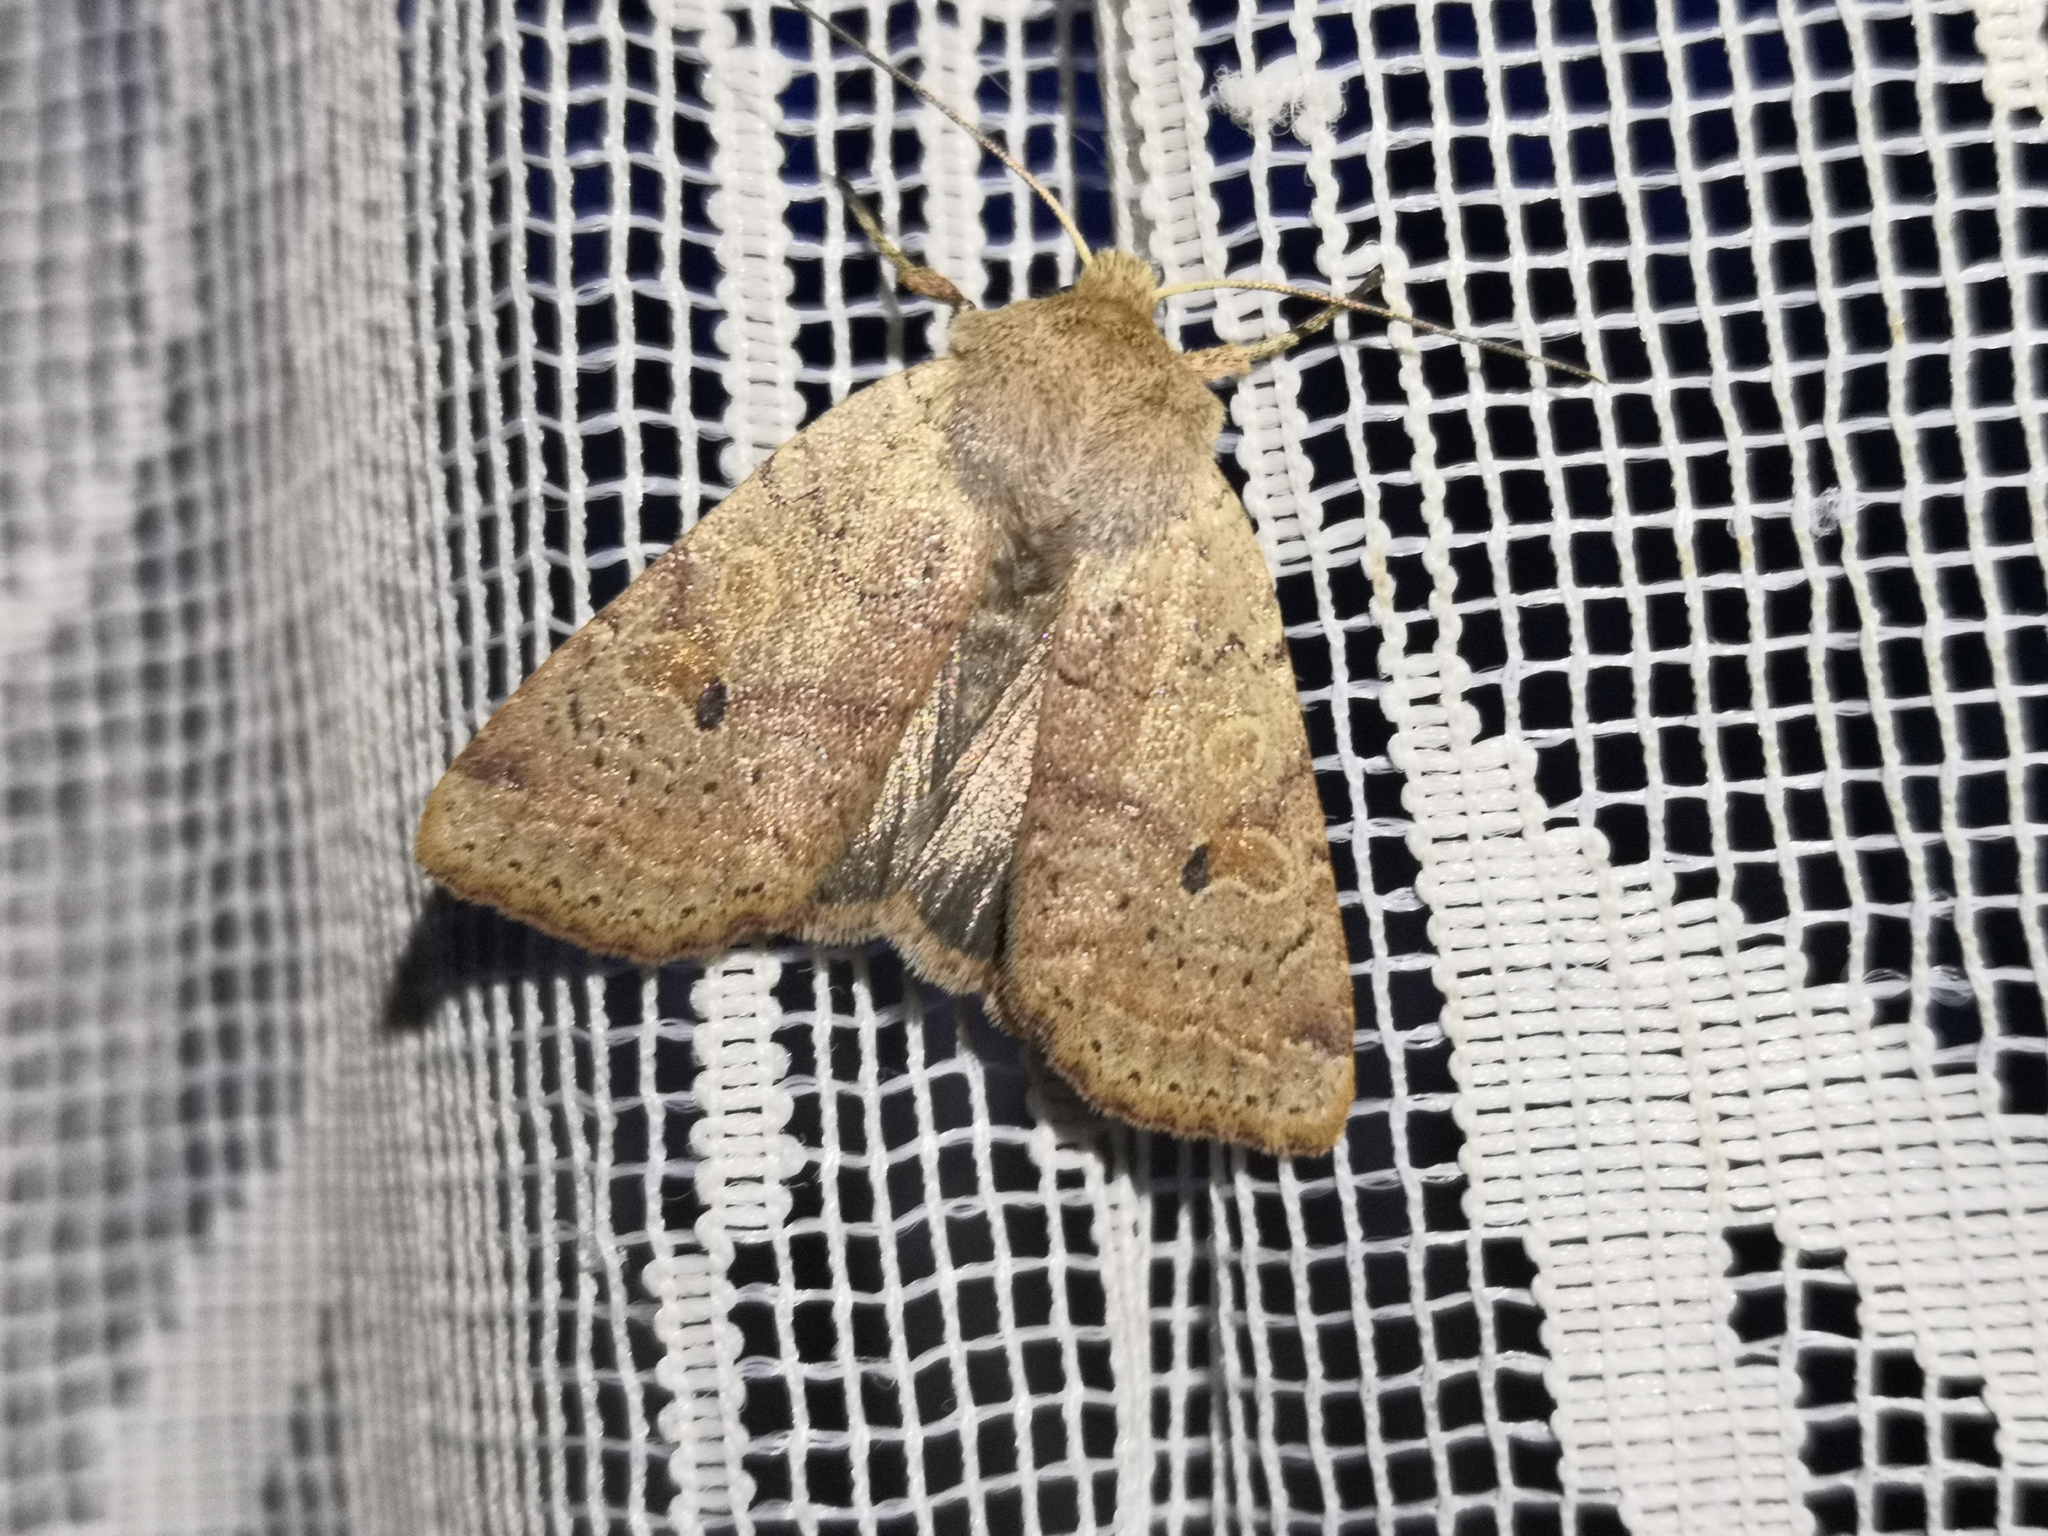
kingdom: Animalia
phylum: Arthropoda
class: Insecta
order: Lepidoptera
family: Noctuidae
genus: Agrochola
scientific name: Agrochola laevis
